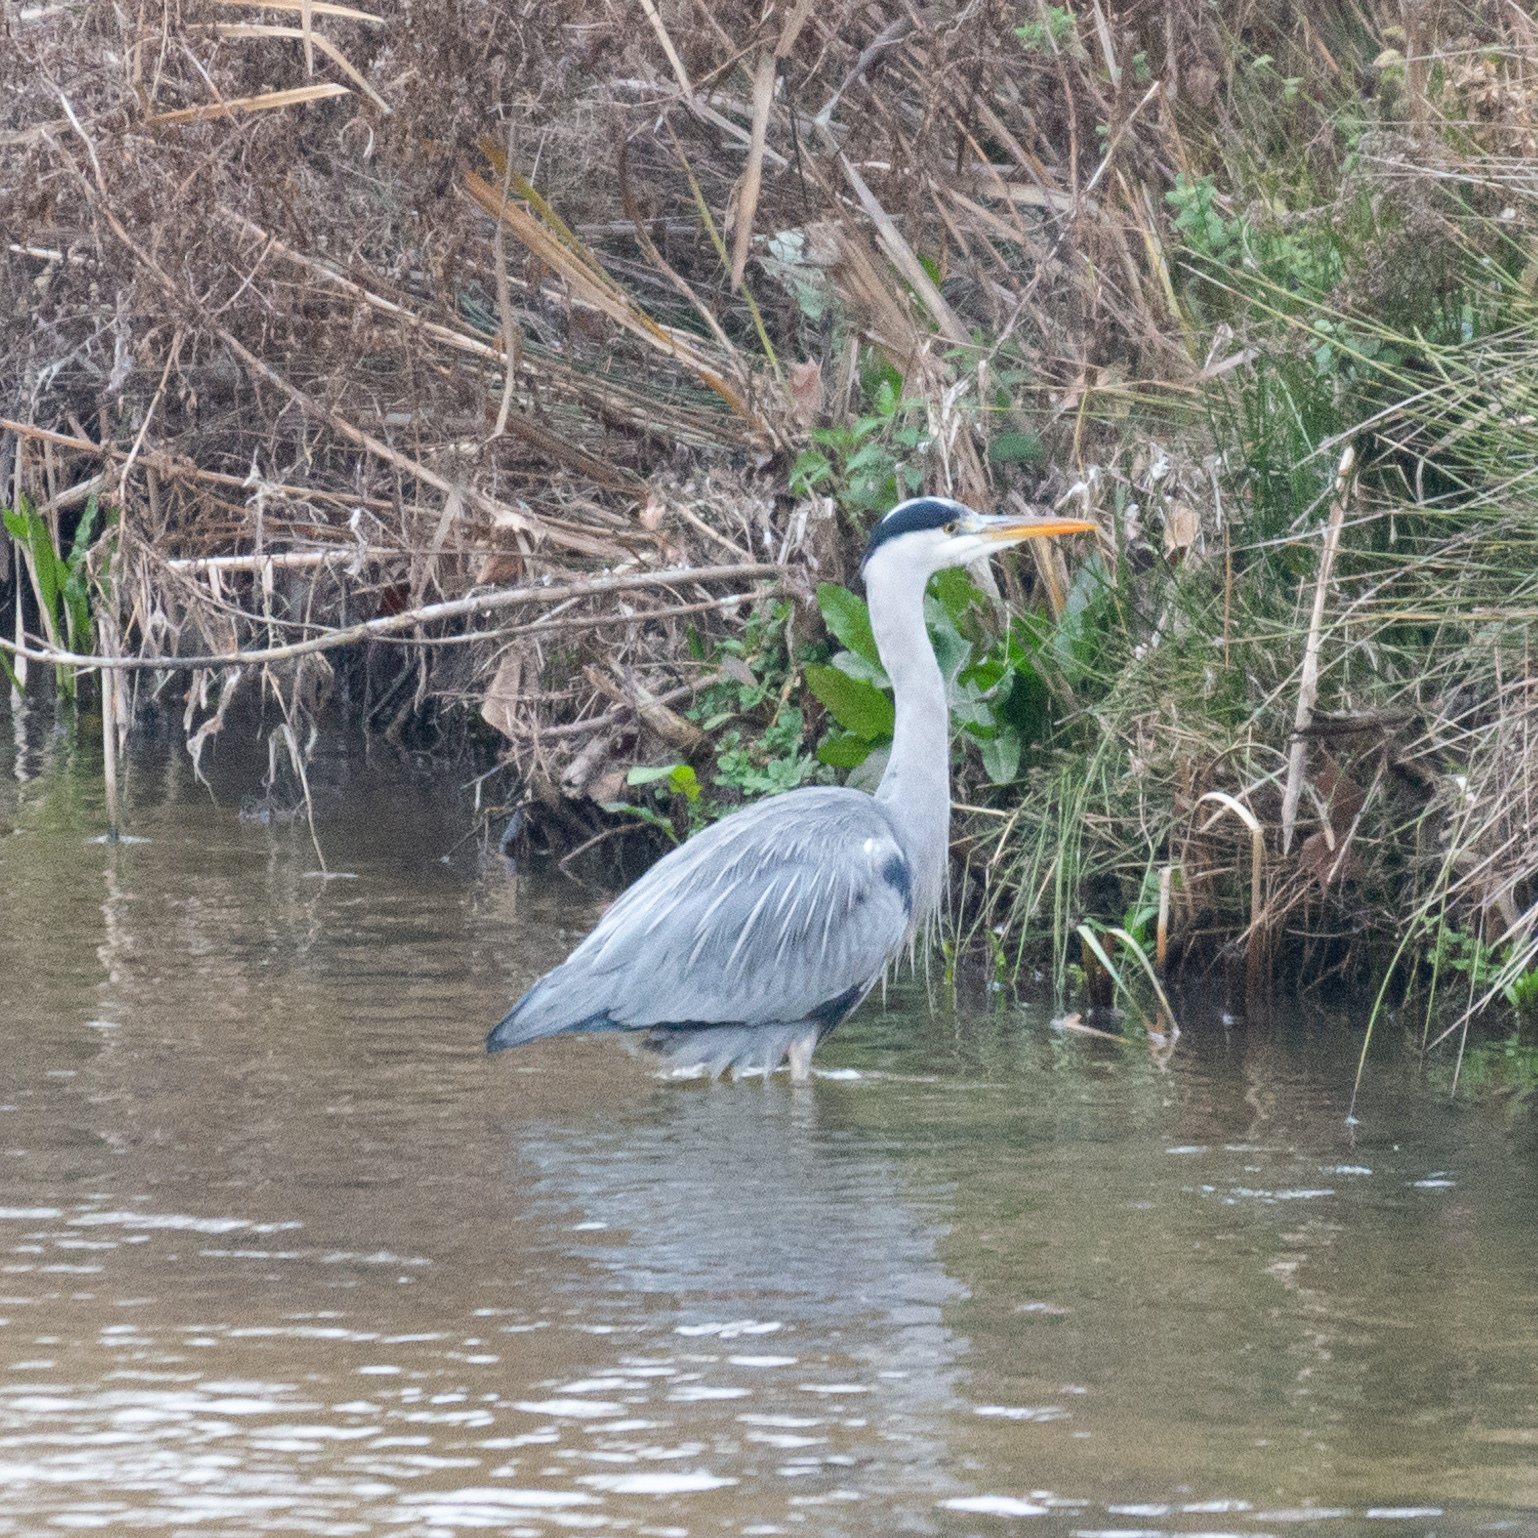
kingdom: Animalia
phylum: Chordata
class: Aves
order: Pelecaniformes
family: Ardeidae
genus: Ardea
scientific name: Ardea cinerea
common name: Grey heron
